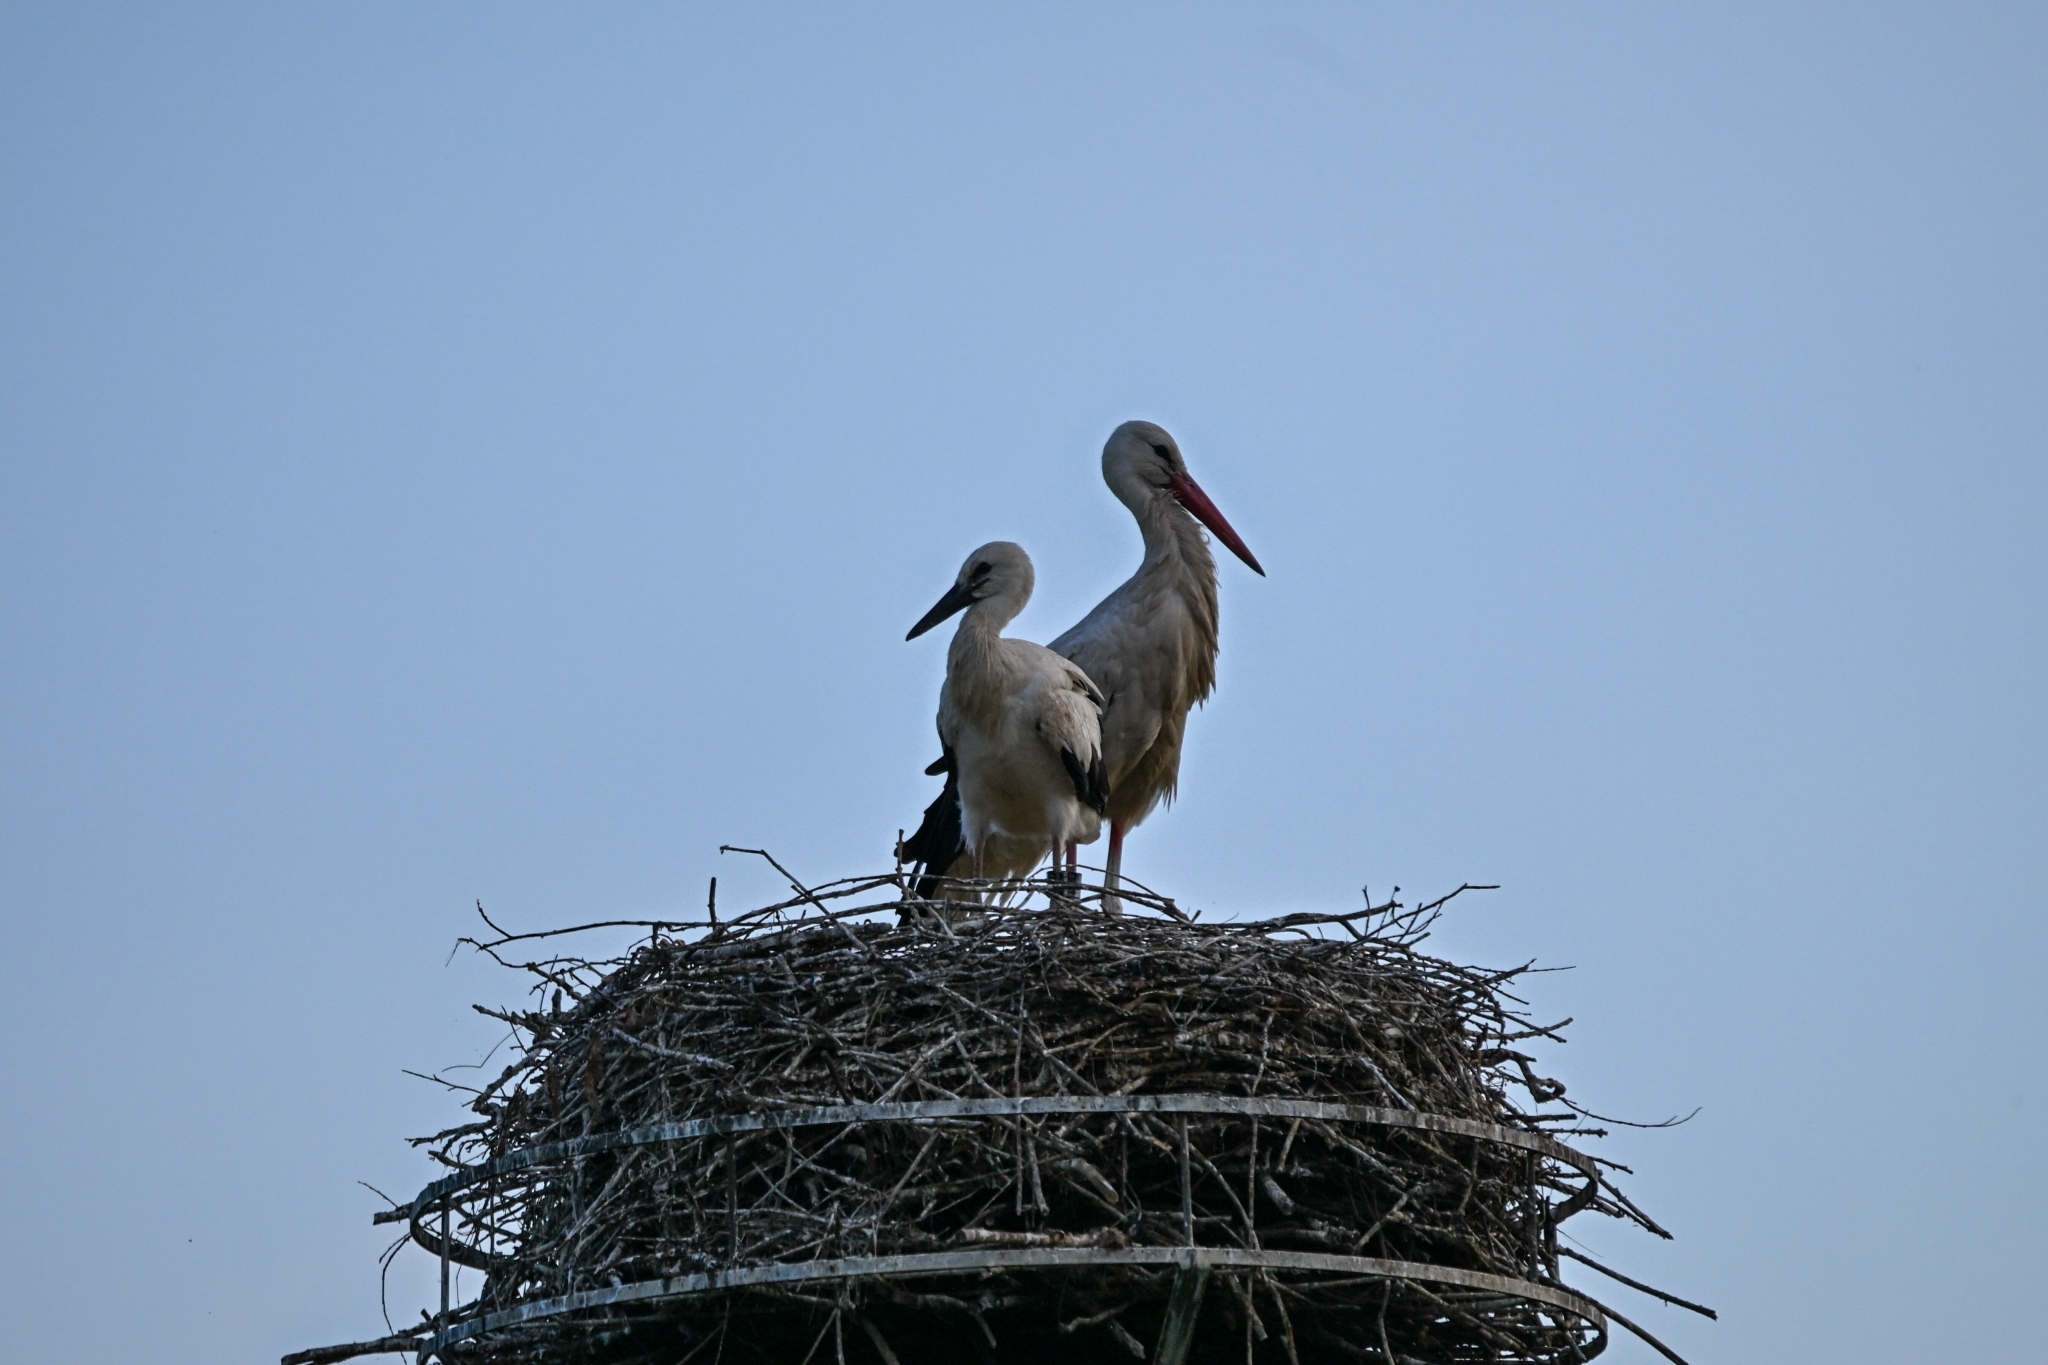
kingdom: Animalia
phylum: Chordata
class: Aves
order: Ciconiiformes
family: Ciconiidae
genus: Ciconia
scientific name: Ciconia ciconia
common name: White stork
